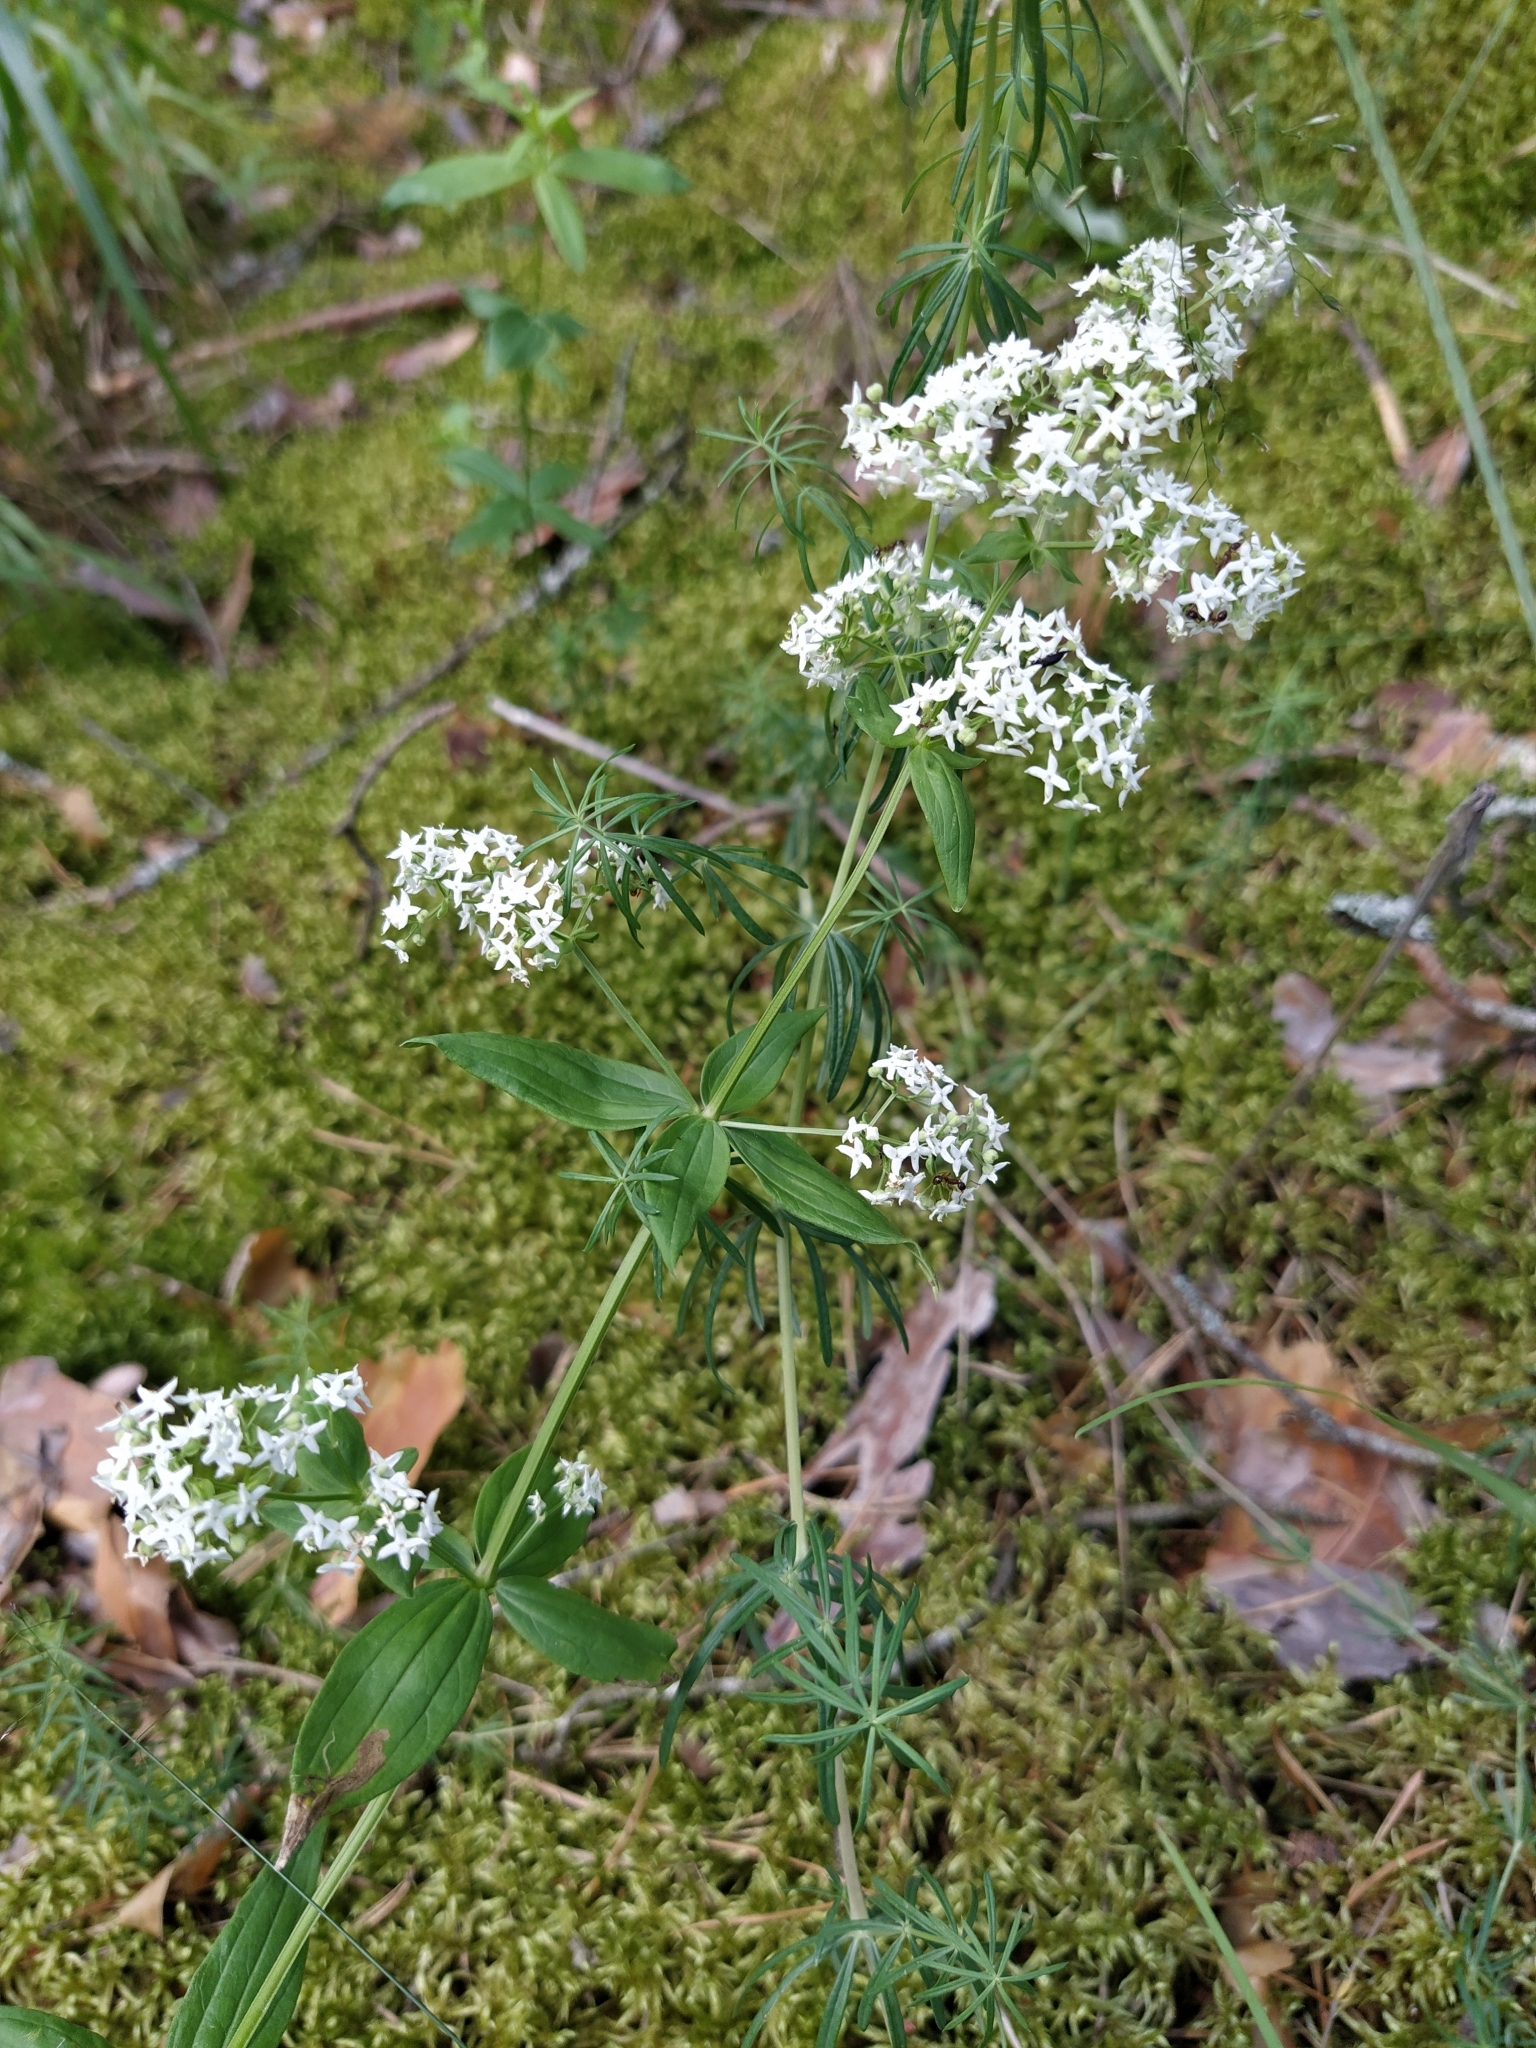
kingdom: Plantae
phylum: Tracheophyta
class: Magnoliopsida
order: Gentianales
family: Rubiaceae
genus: Galium
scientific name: Galium boreale
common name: Northern bedstraw
